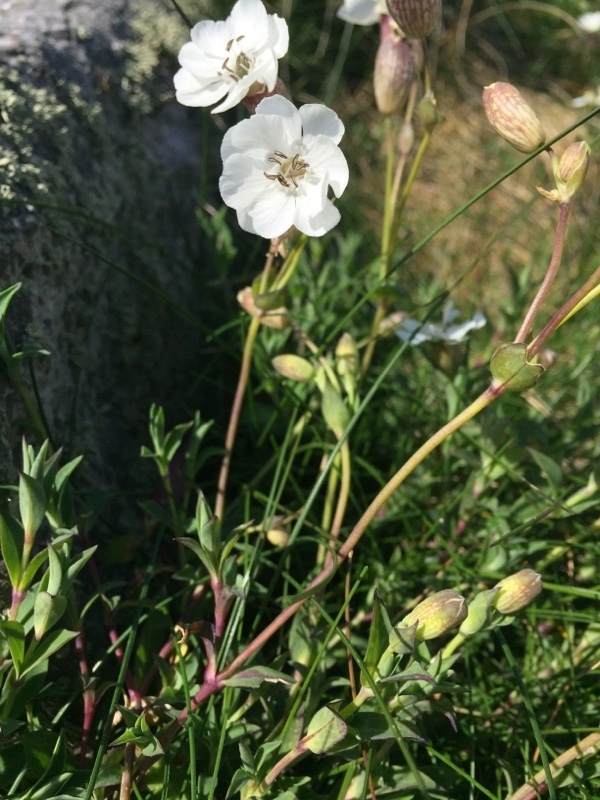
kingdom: Plantae
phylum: Tracheophyta
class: Magnoliopsida
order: Caryophyllales
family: Caryophyllaceae
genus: Silene
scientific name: Silene uniflora
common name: Sea campion
